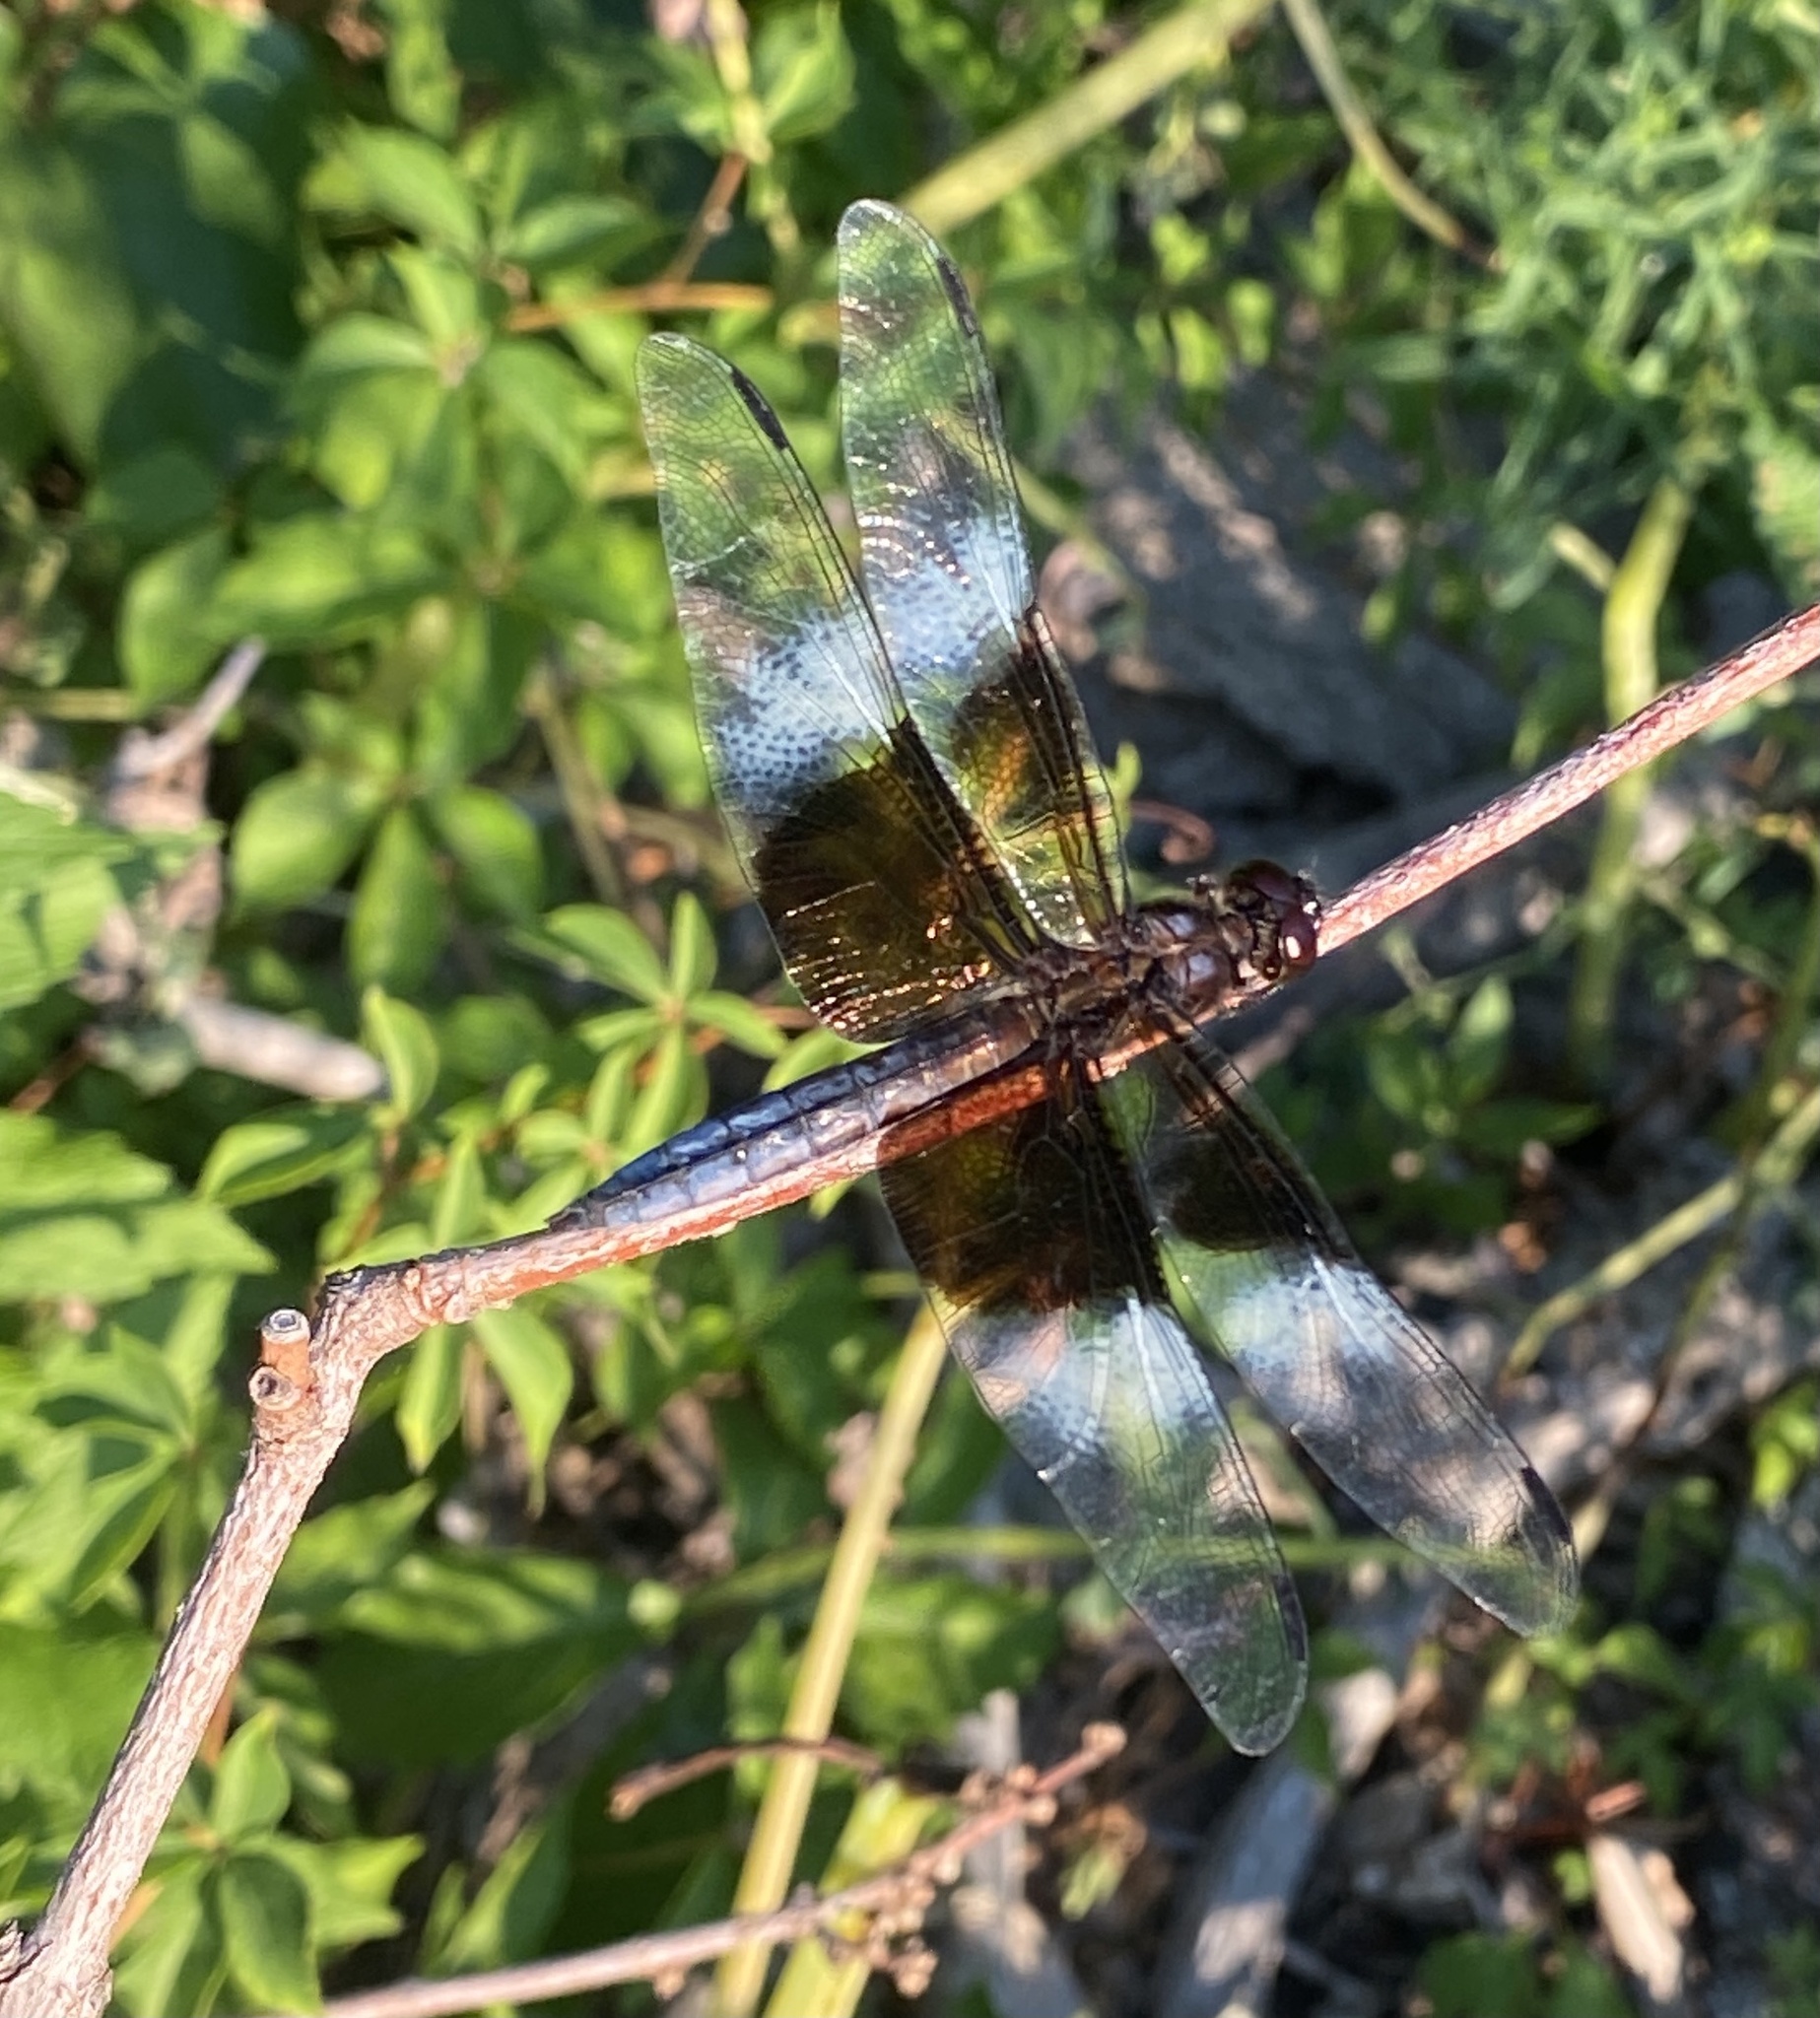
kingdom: Animalia
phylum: Arthropoda
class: Insecta
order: Odonata
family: Libellulidae
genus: Libellula
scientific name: Libellula luctuosa
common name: Widow skimmer
